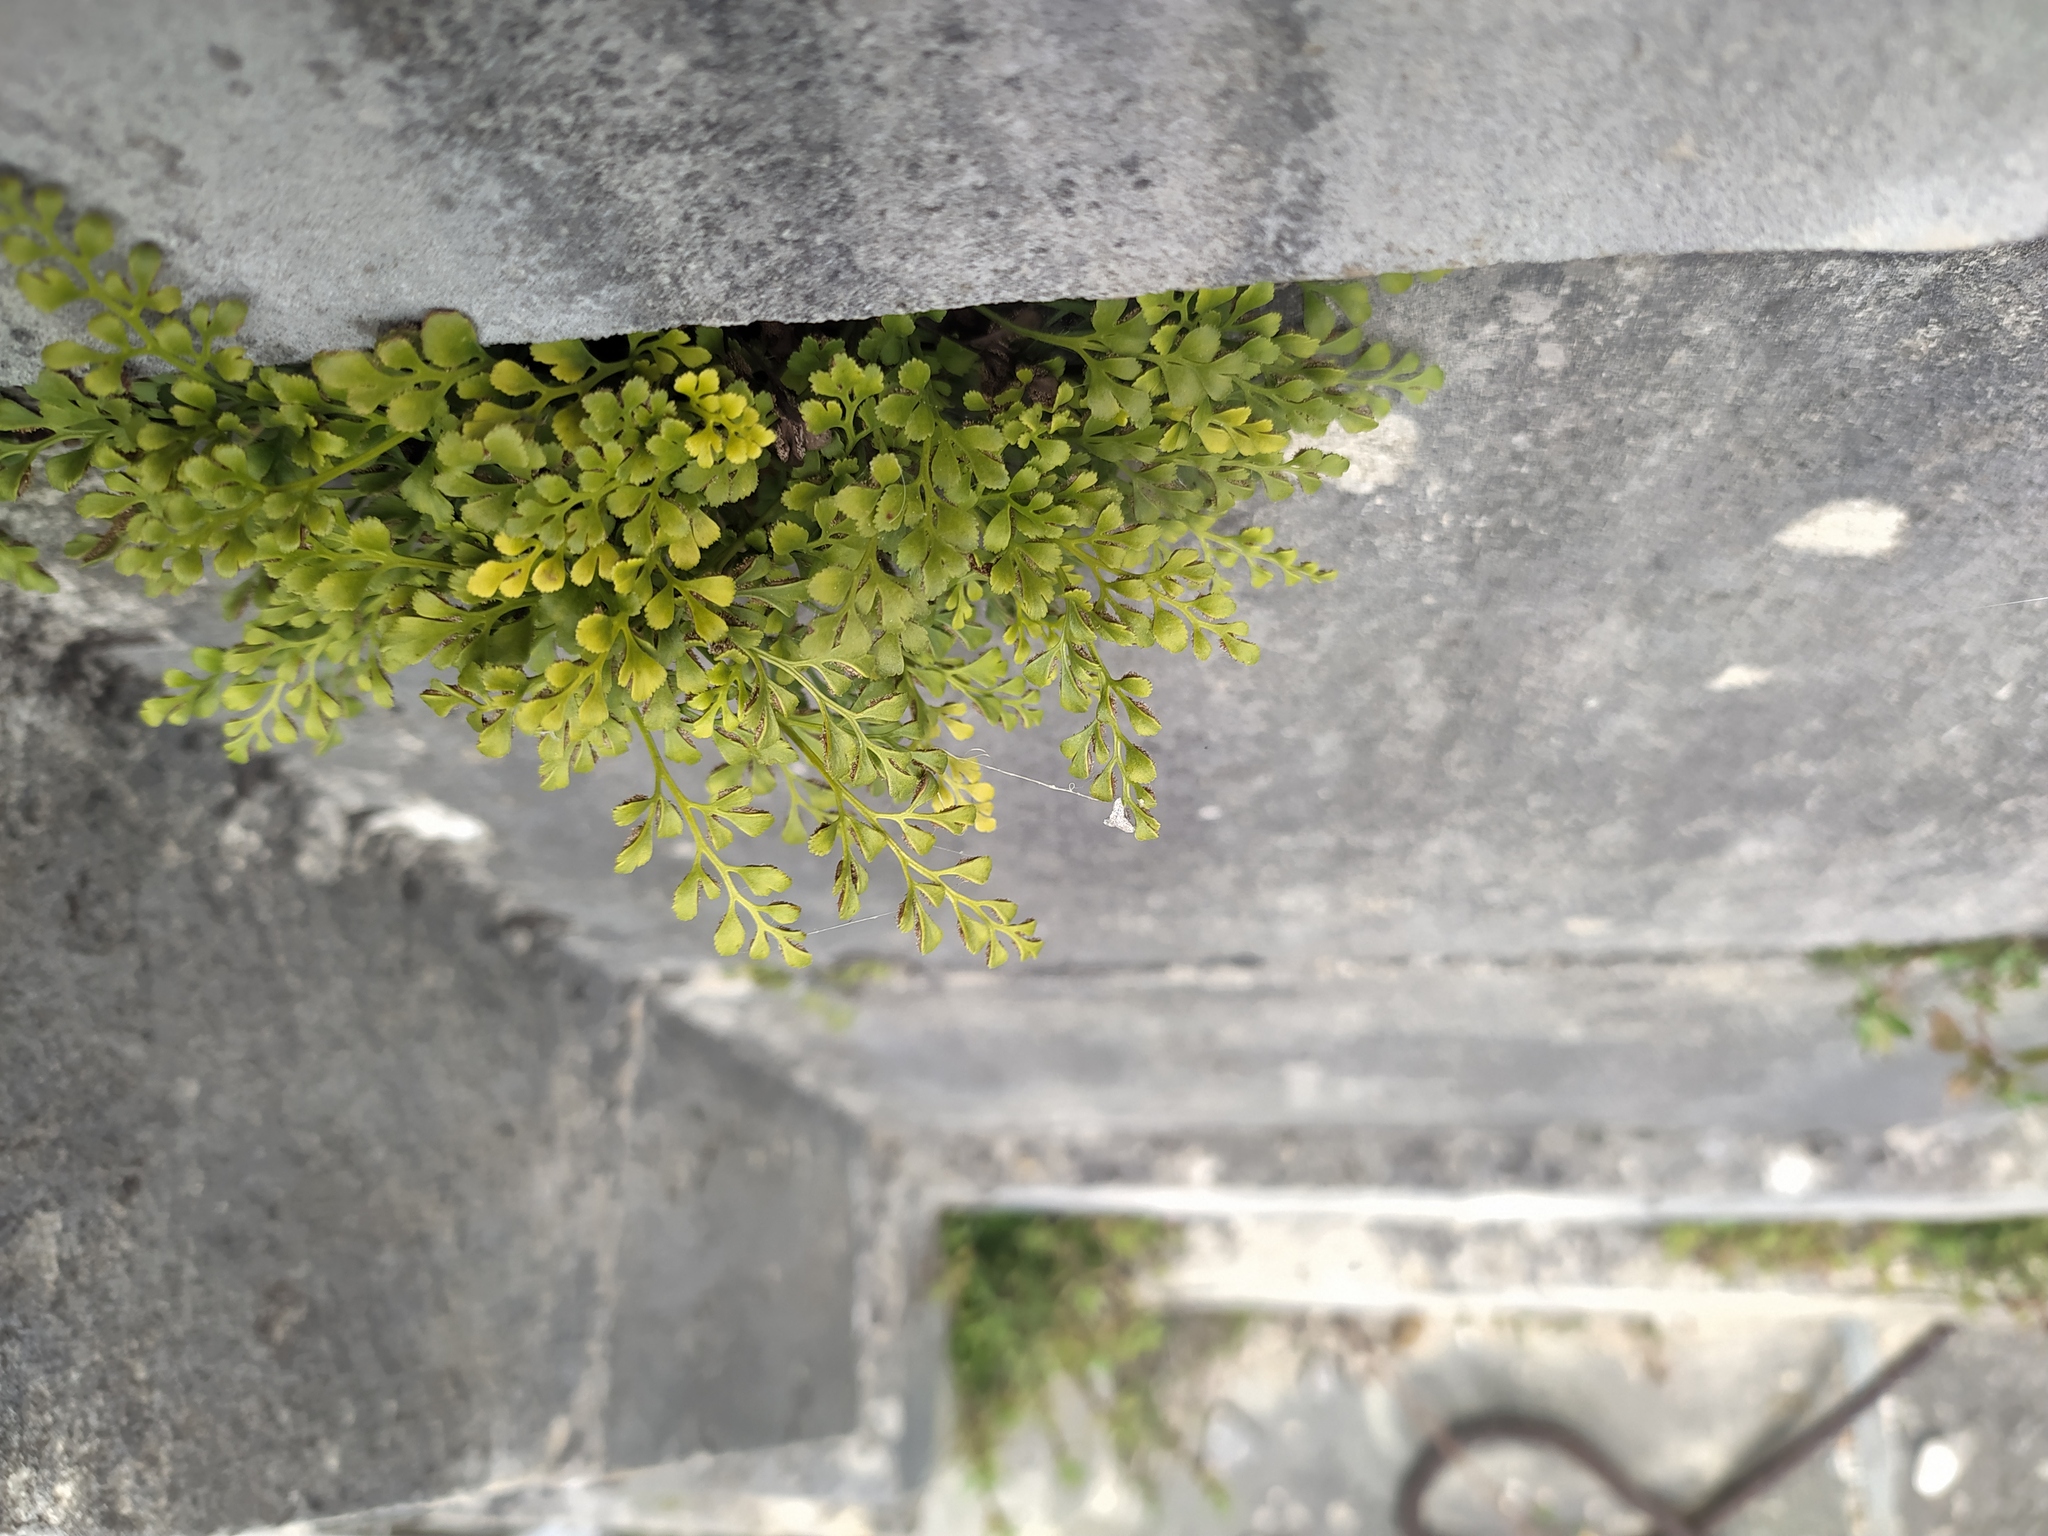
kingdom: Plantae
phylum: Tracheophyta
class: Polypodiopsida
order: Polypodiales
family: Aspleniaceae
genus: Asplenium
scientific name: Asplenium ruta-muraria
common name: Wall-rue
